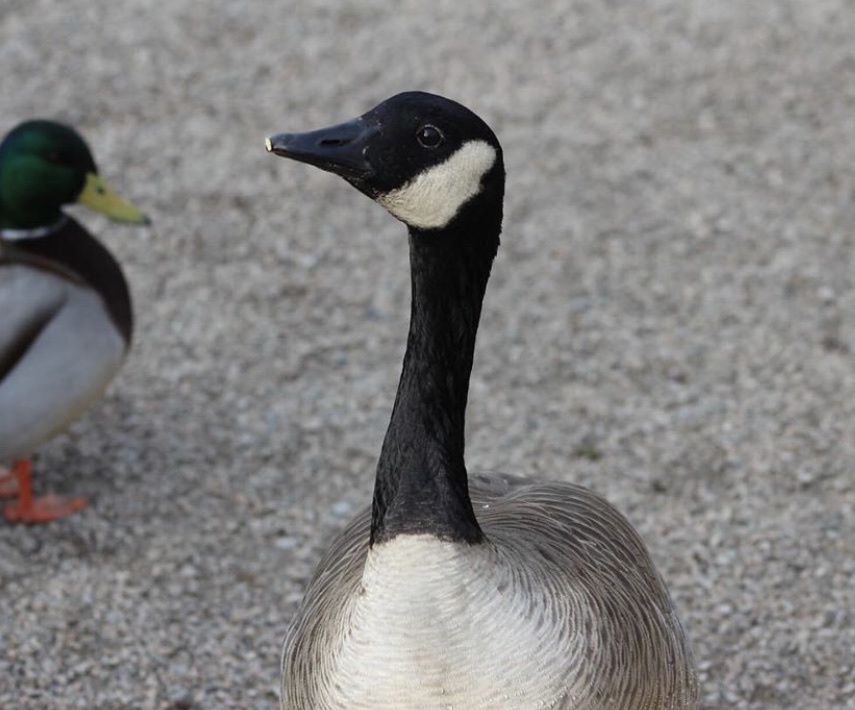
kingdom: Animalia
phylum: Chordata
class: Aves
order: Anseriformes
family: Anatidae
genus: Branta
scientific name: Branta canadensis
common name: Canada goose
